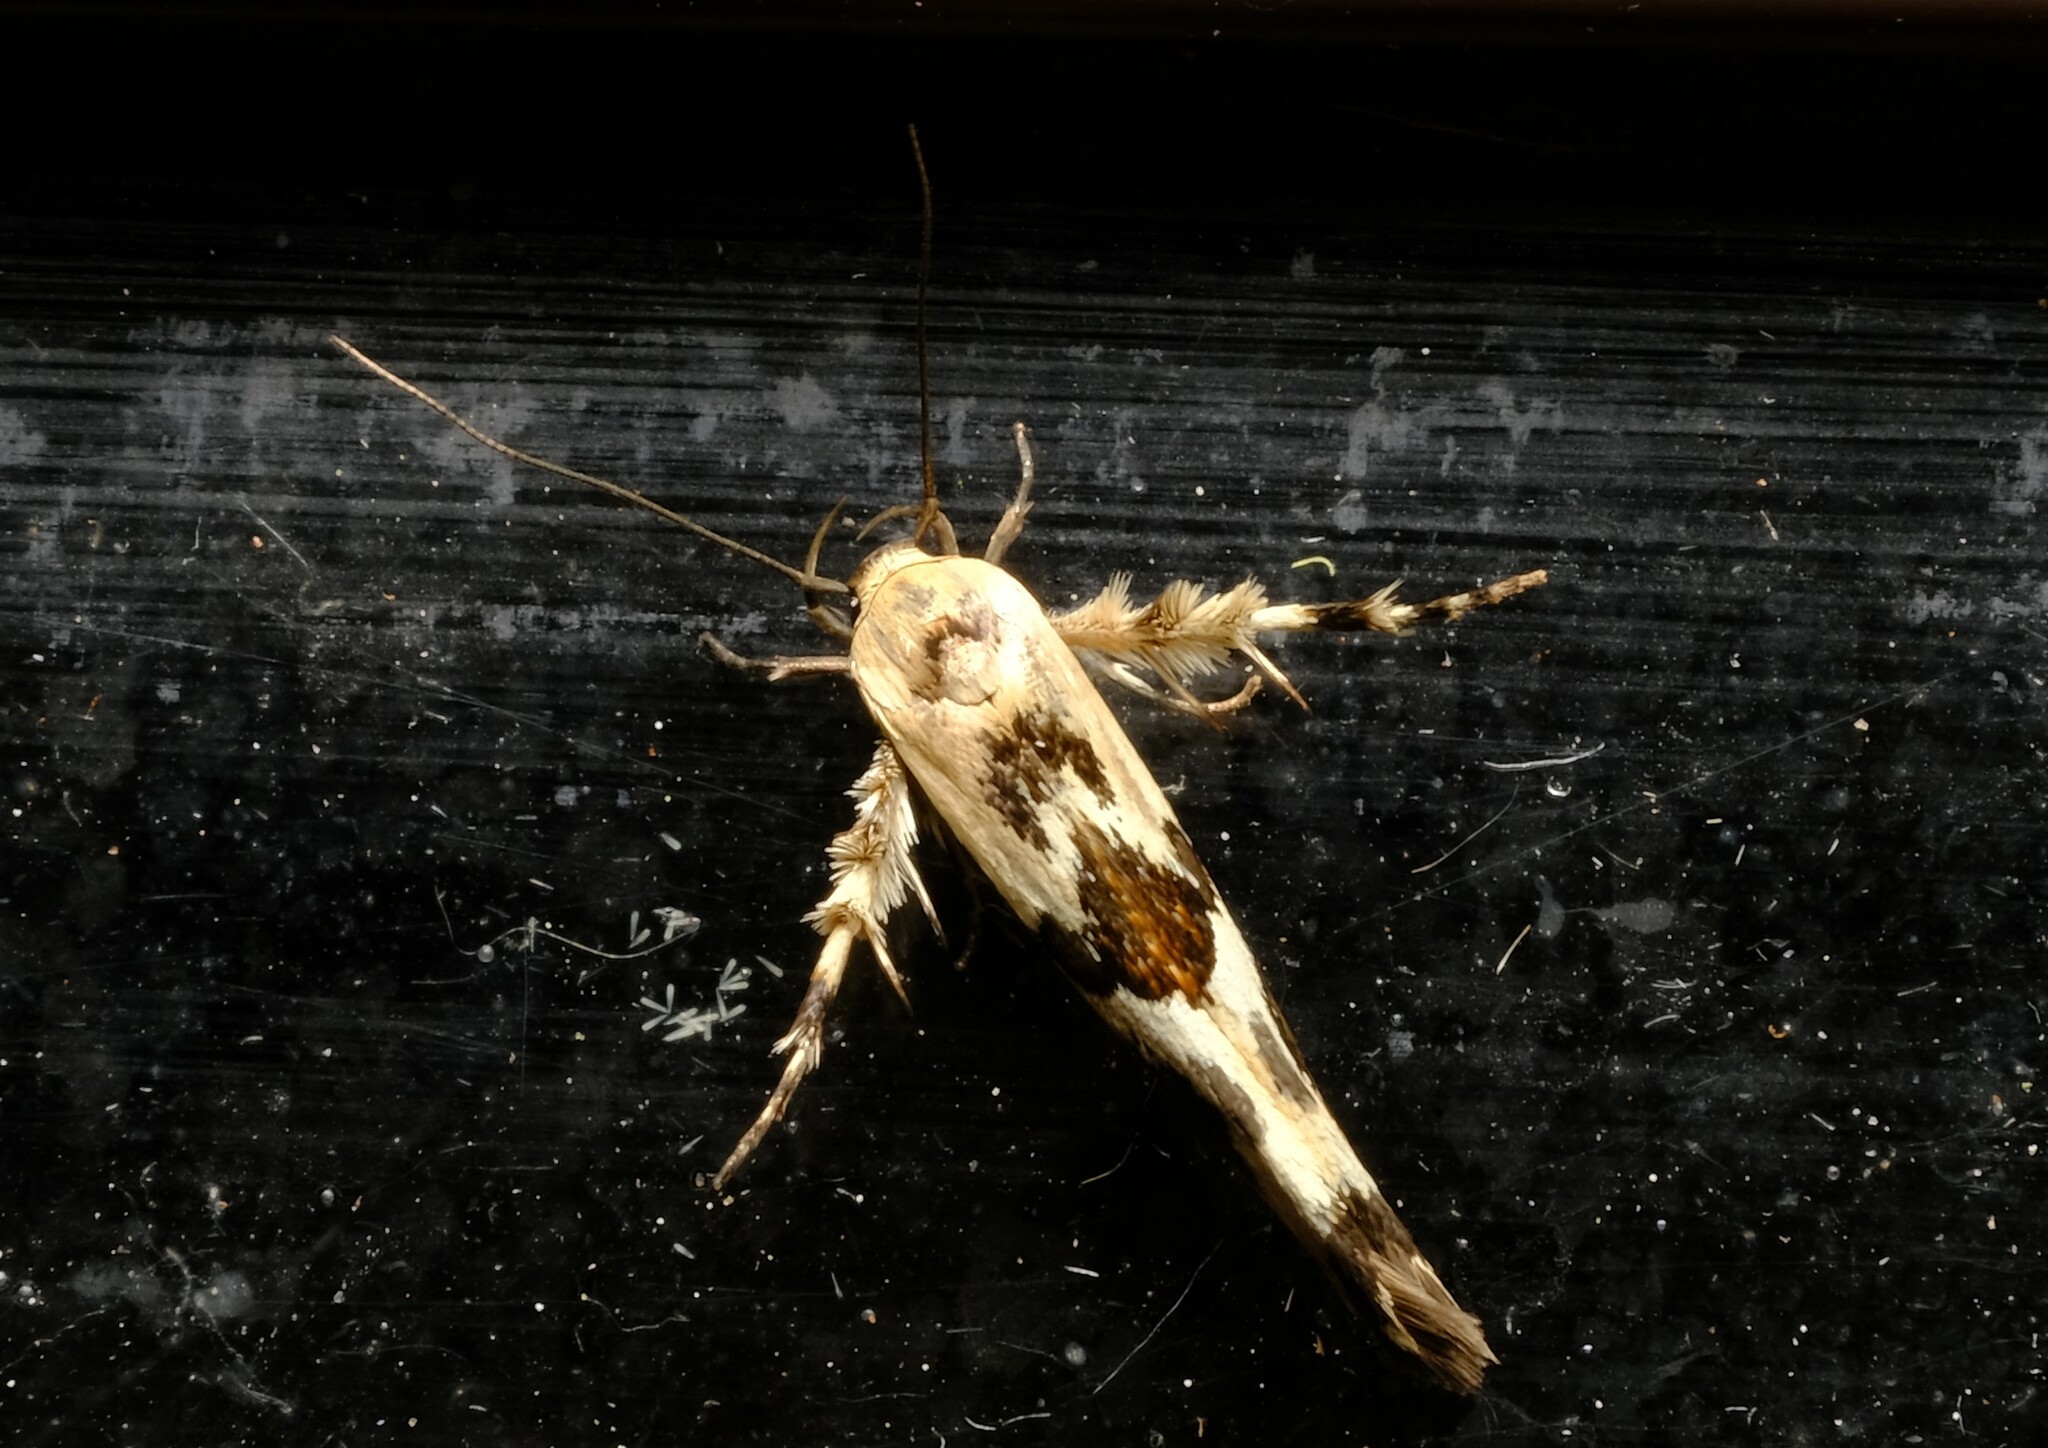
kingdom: Animalia
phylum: Arthropoda
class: Insecta
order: Lepidoptera
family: Stathmopodidae
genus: Stathmopoda
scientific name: Stathmopoda melanochra
